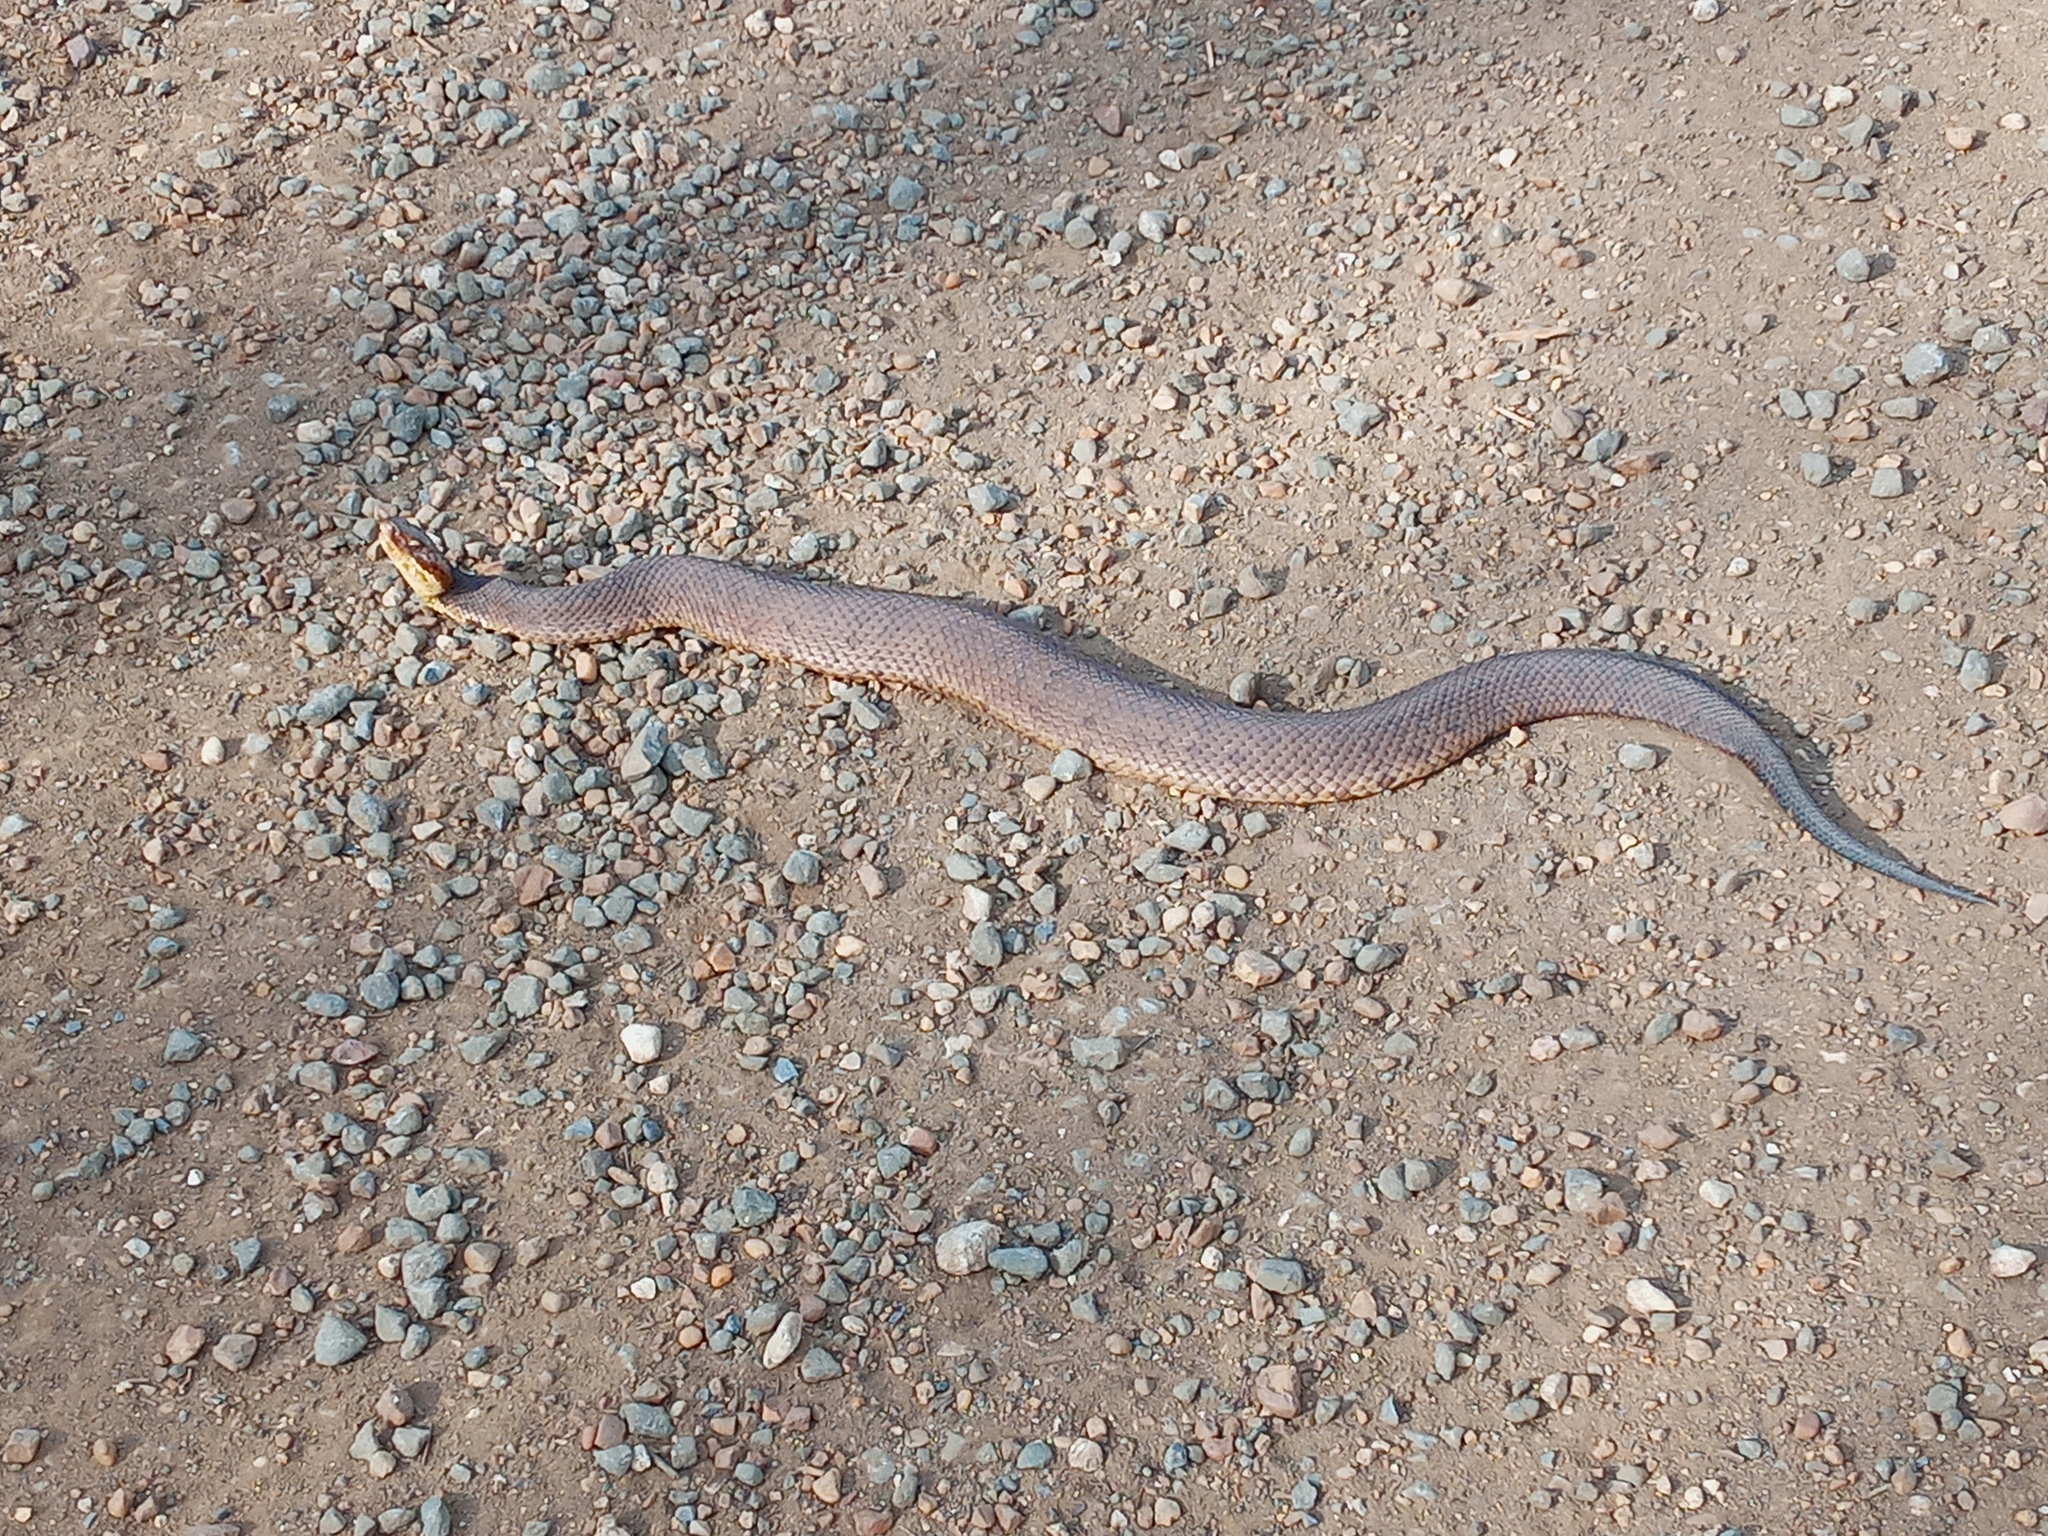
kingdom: Animalia
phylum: Chordata
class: Squamata
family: Viperidae
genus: Agkistrodon
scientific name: Agkistrodon piscivorus
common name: Cottonmouth
